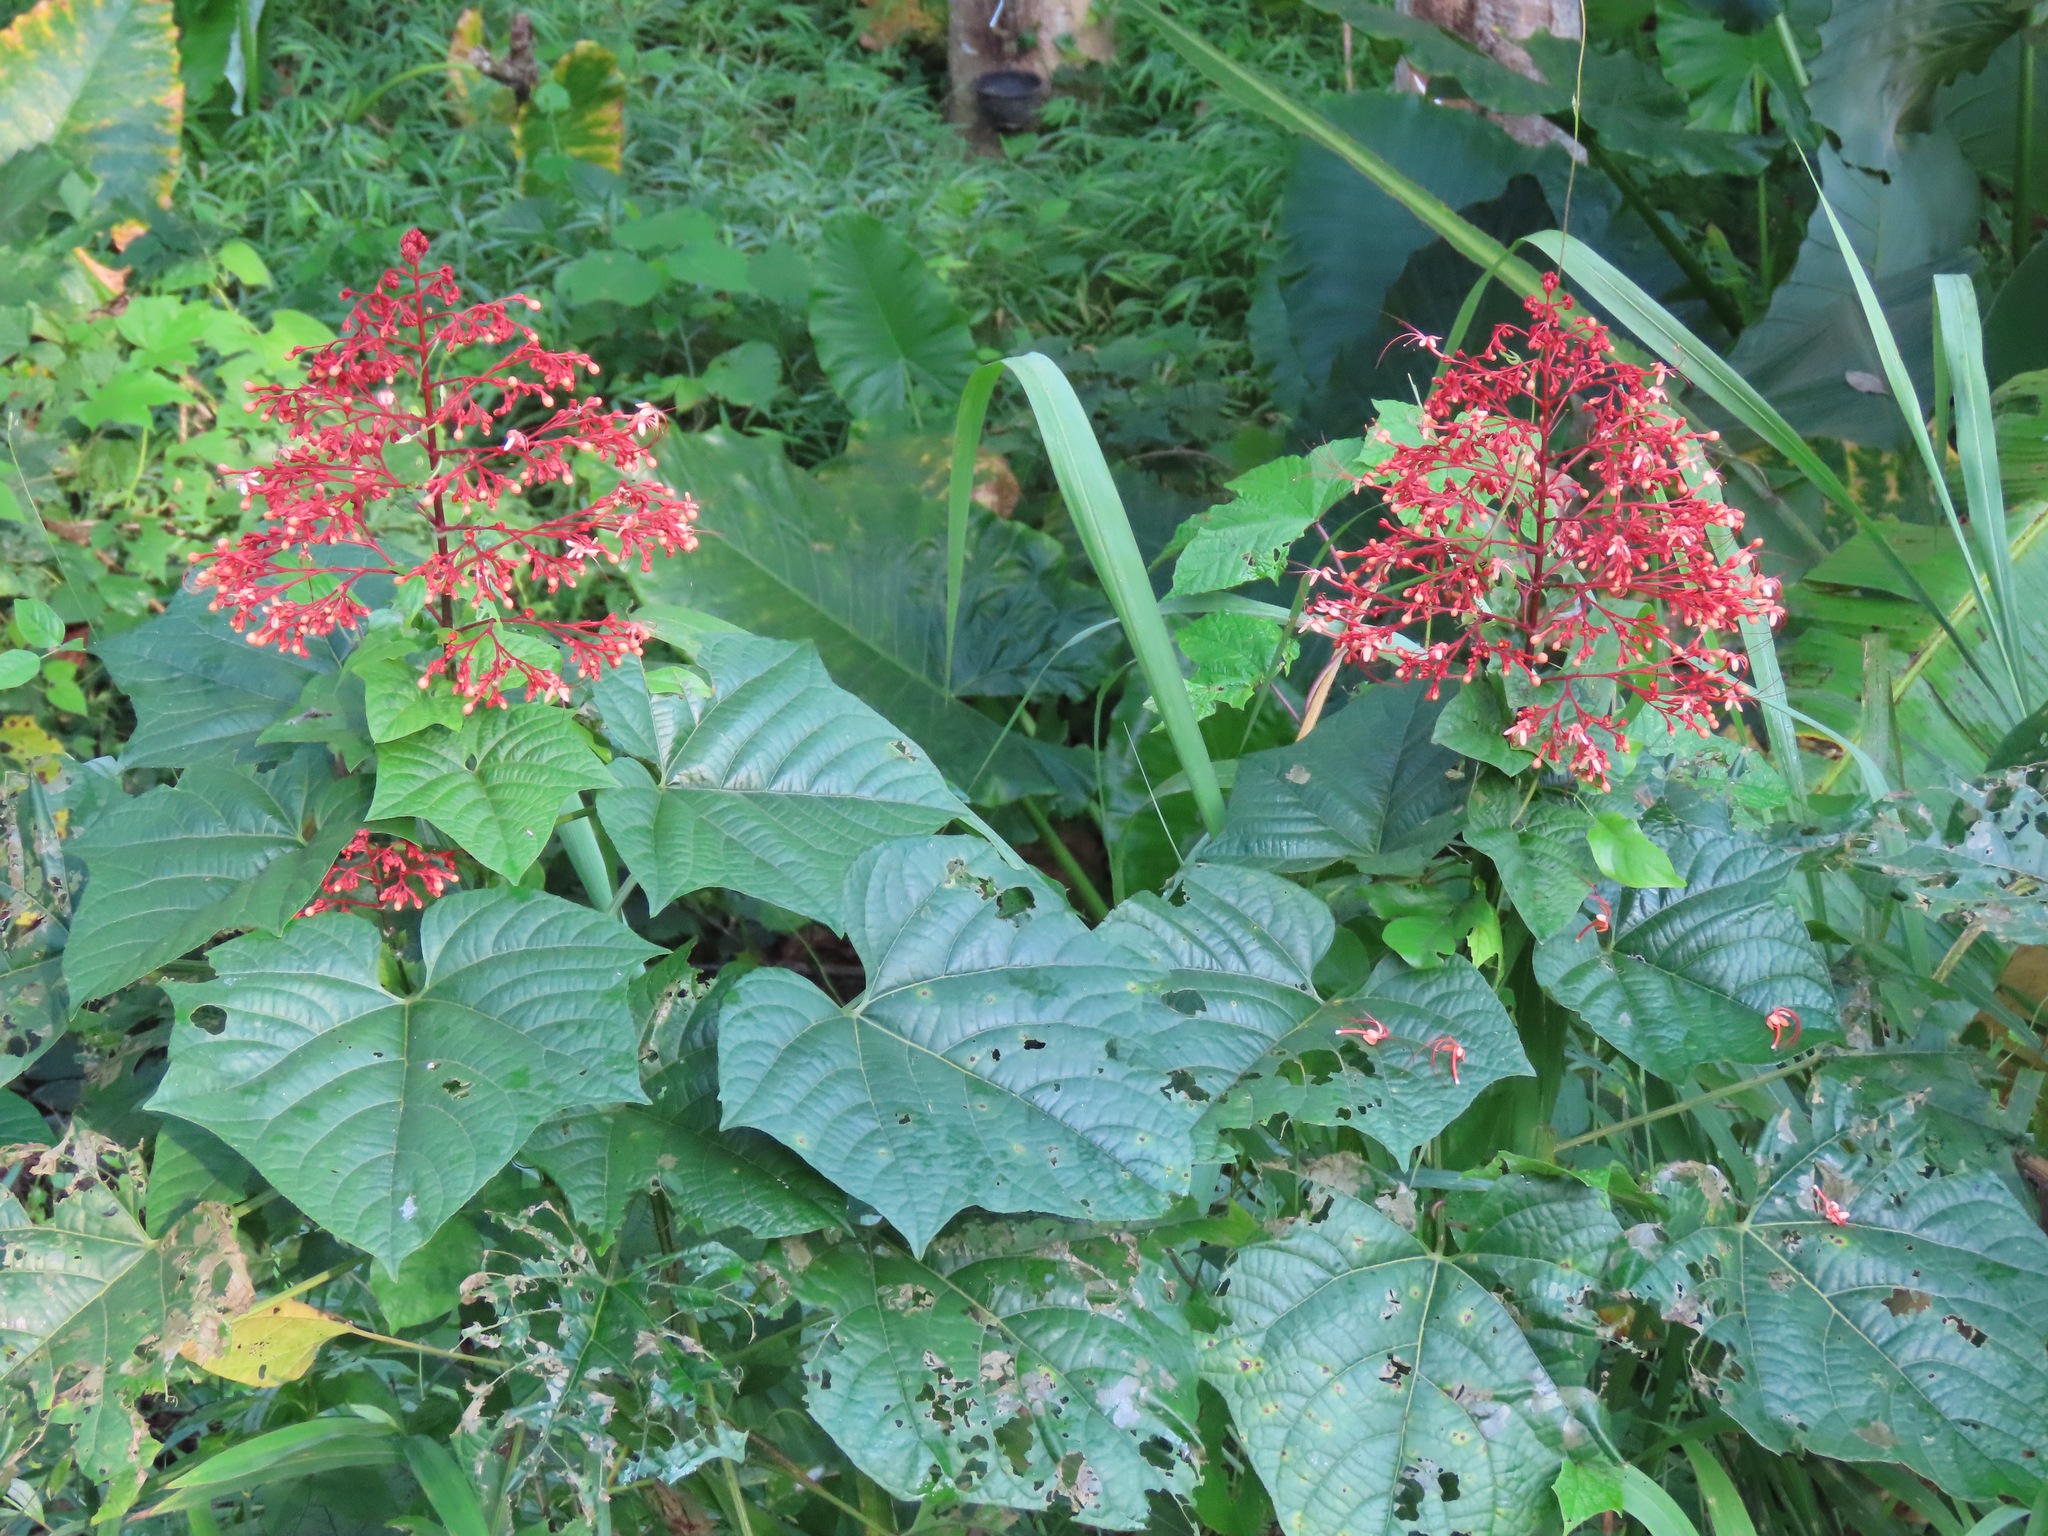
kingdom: Plantae
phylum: Tracheophyta
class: Magnoliopsida
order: Lamiales
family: Lamiaceae
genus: Clerodendrum
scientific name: Clerodendrum paniculatum
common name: Pagoda-flower
